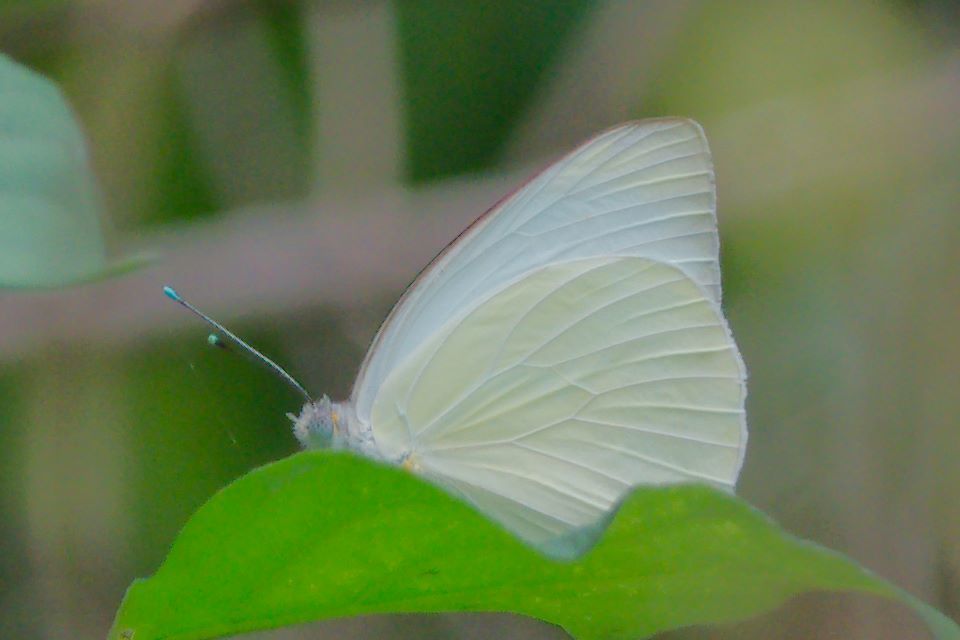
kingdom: Animalia
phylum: Arthropoda
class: Insecta
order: Lepidoptera
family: Pieridae
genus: Ascia
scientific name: Ascia monuste
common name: Great southern white
